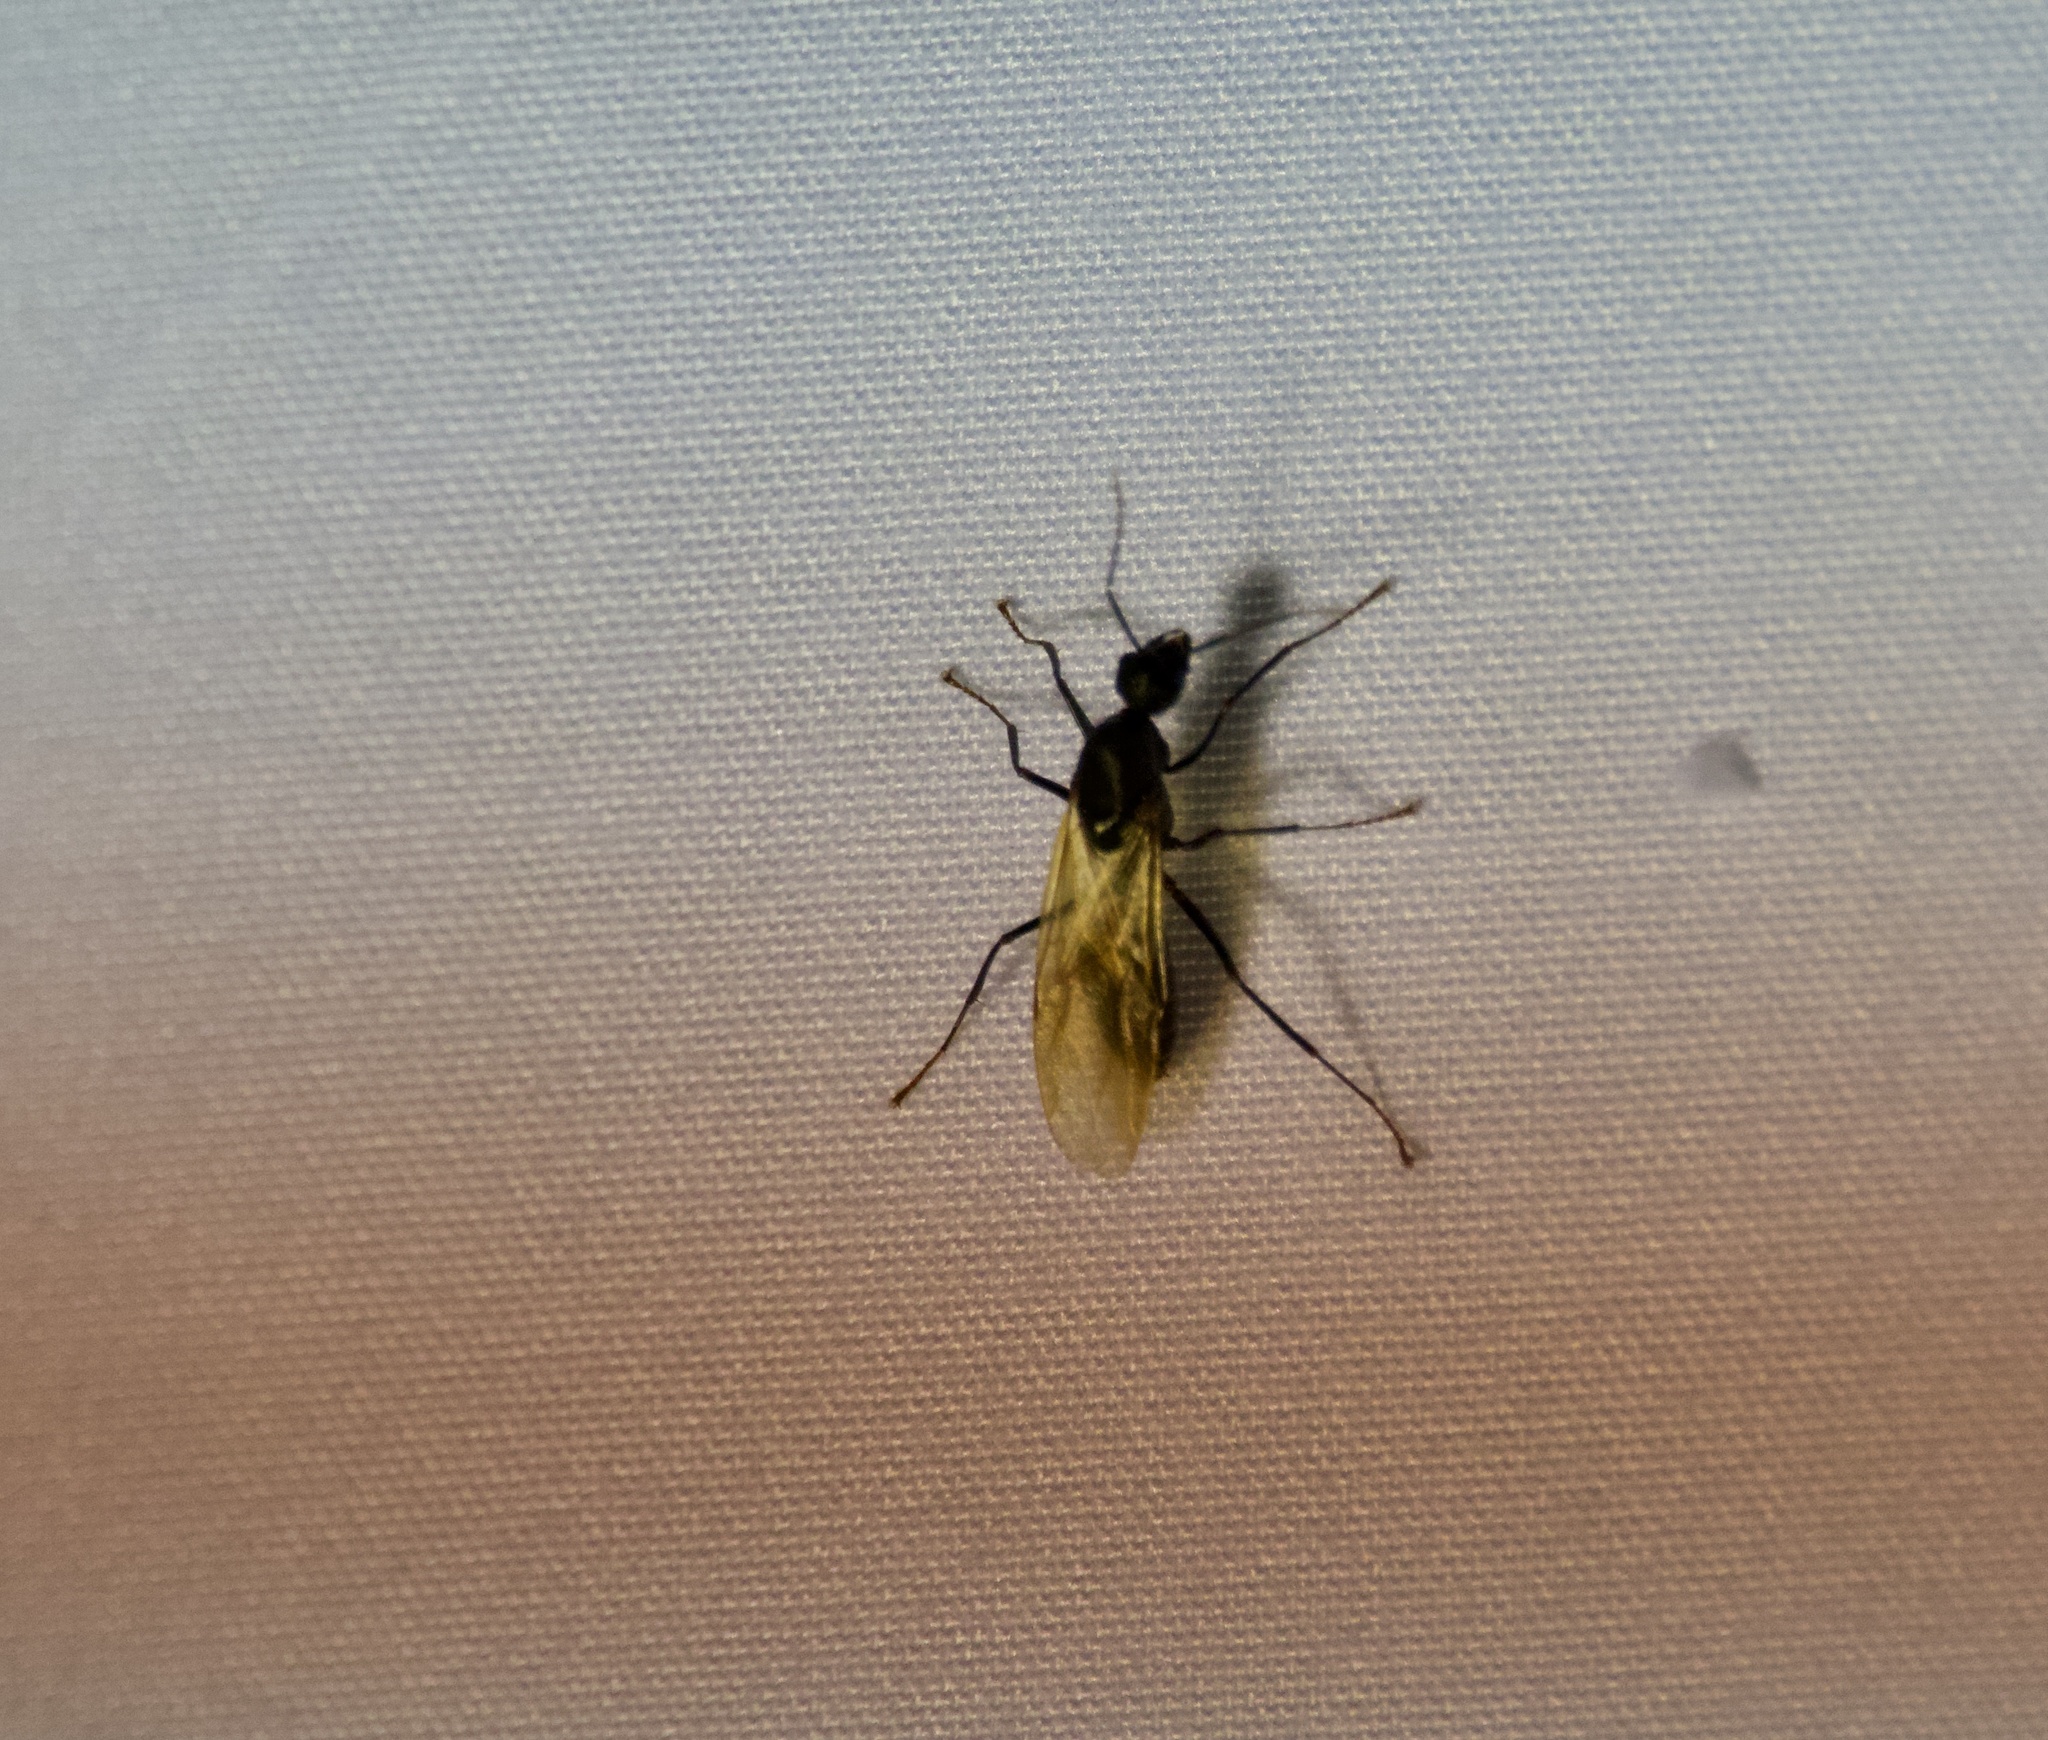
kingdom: Animalia
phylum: Arthropoda
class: Insecta
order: Hymenoptera
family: Formicidae
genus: Camponotus
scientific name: Camponotus pennsylvanicus
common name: Black carpenter ant
